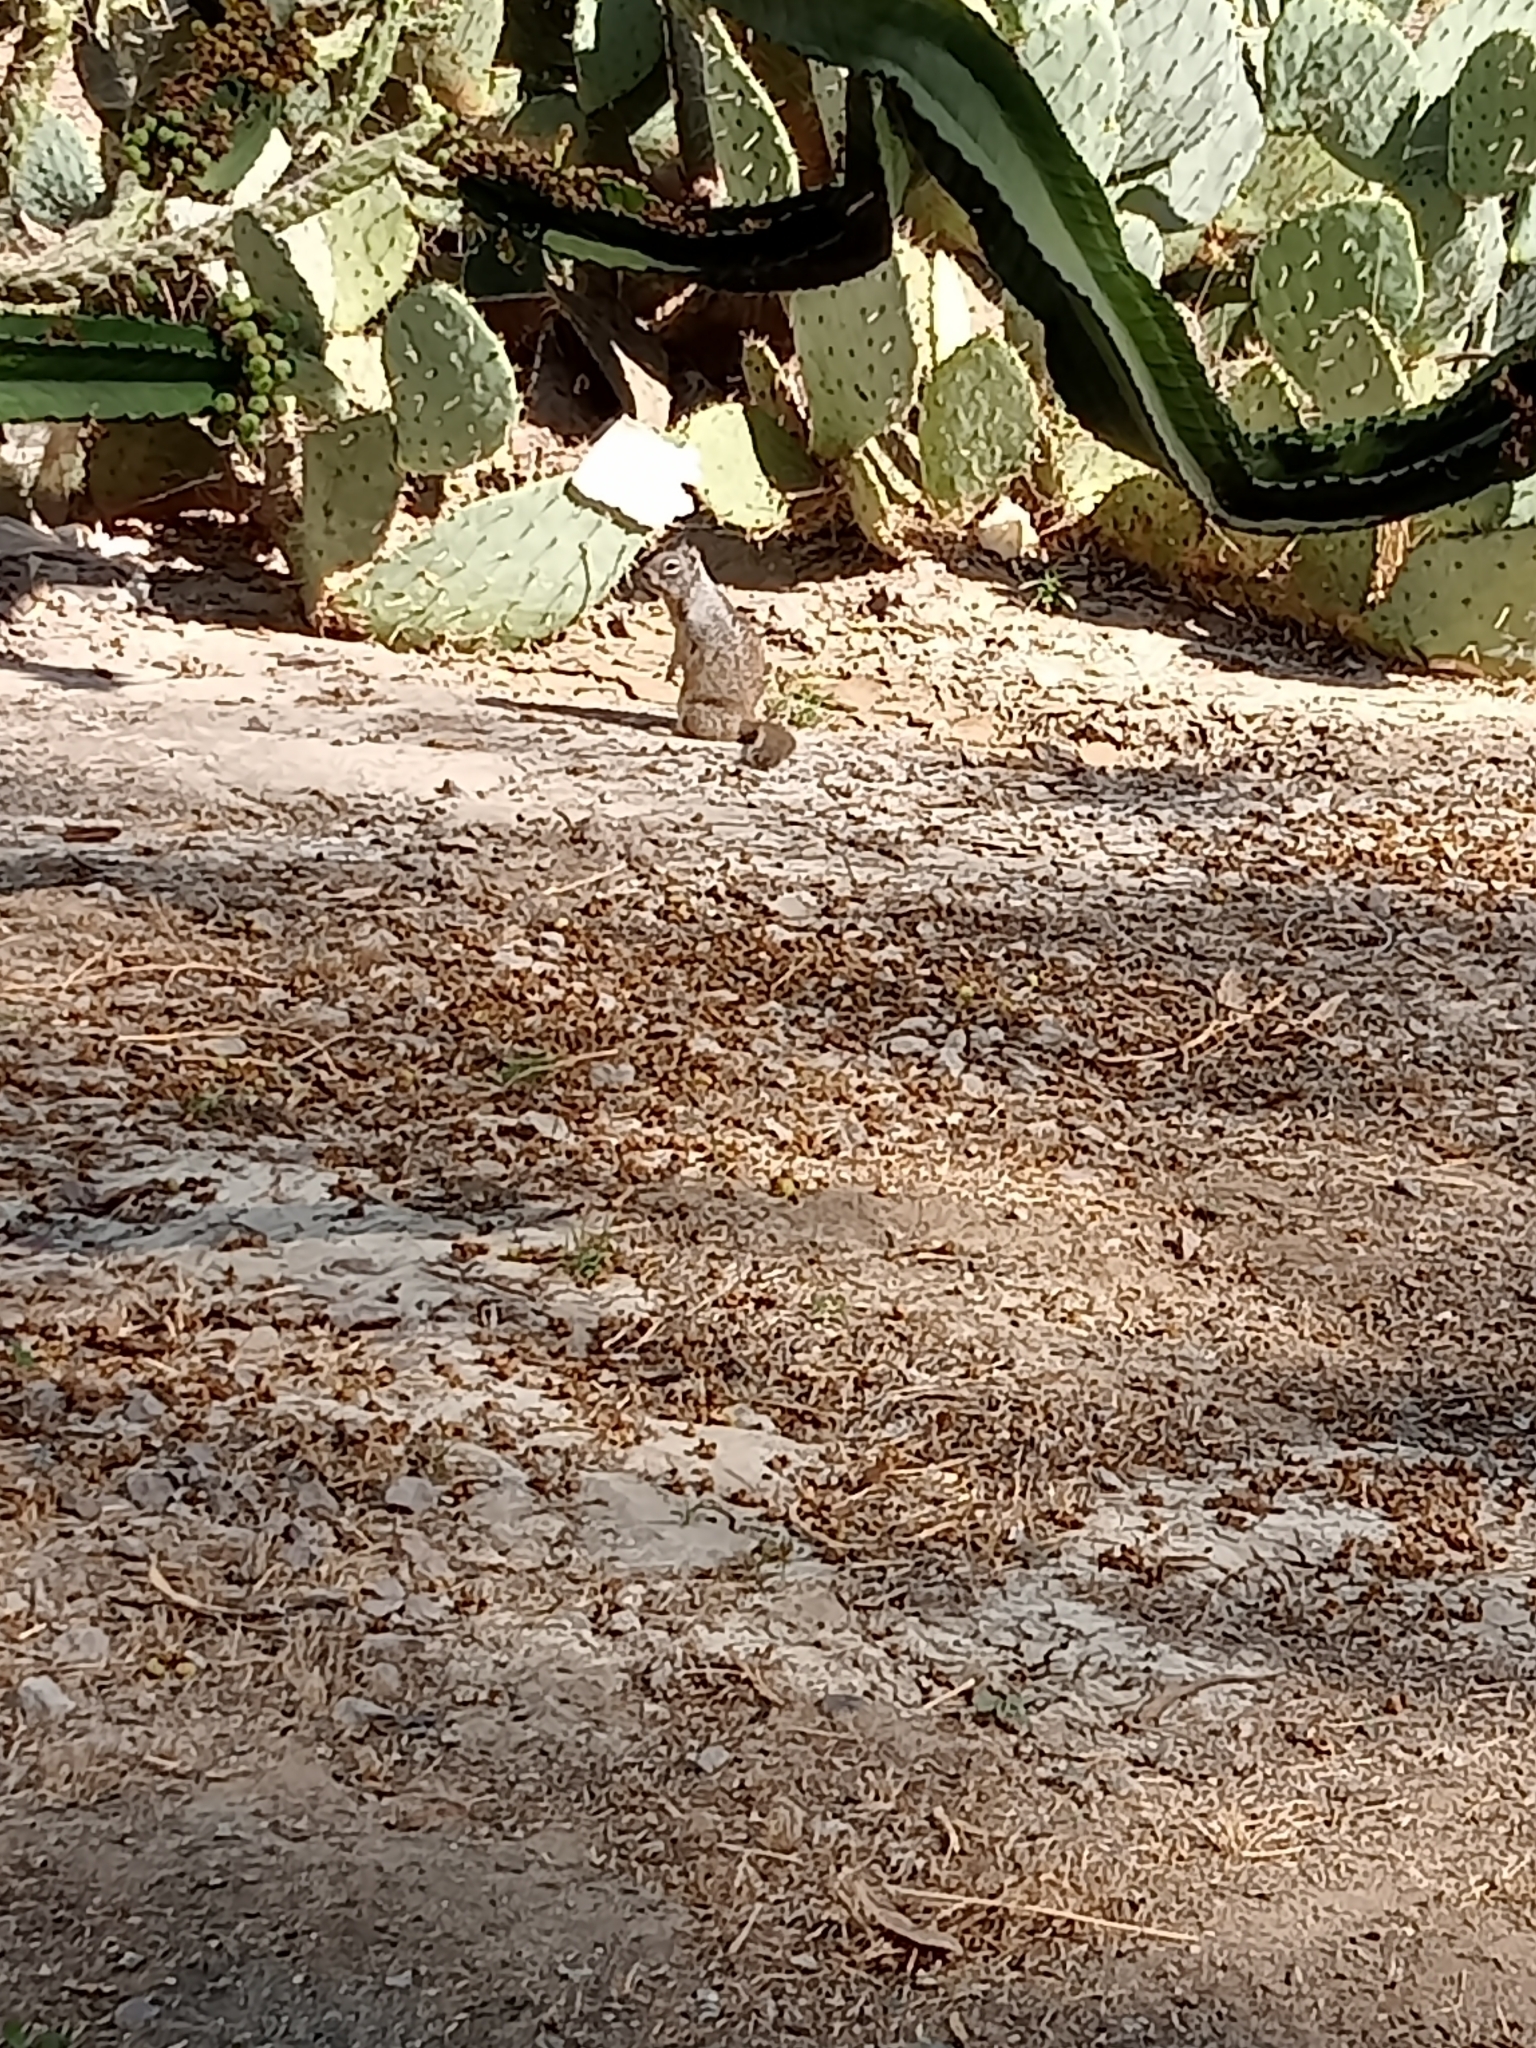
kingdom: Animalia
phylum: Chordata
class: Mammalia
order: Rodentia
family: Sciuridae
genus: Otospermophilus
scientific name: Otospermophilus beecheyi
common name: California ground squirrel
